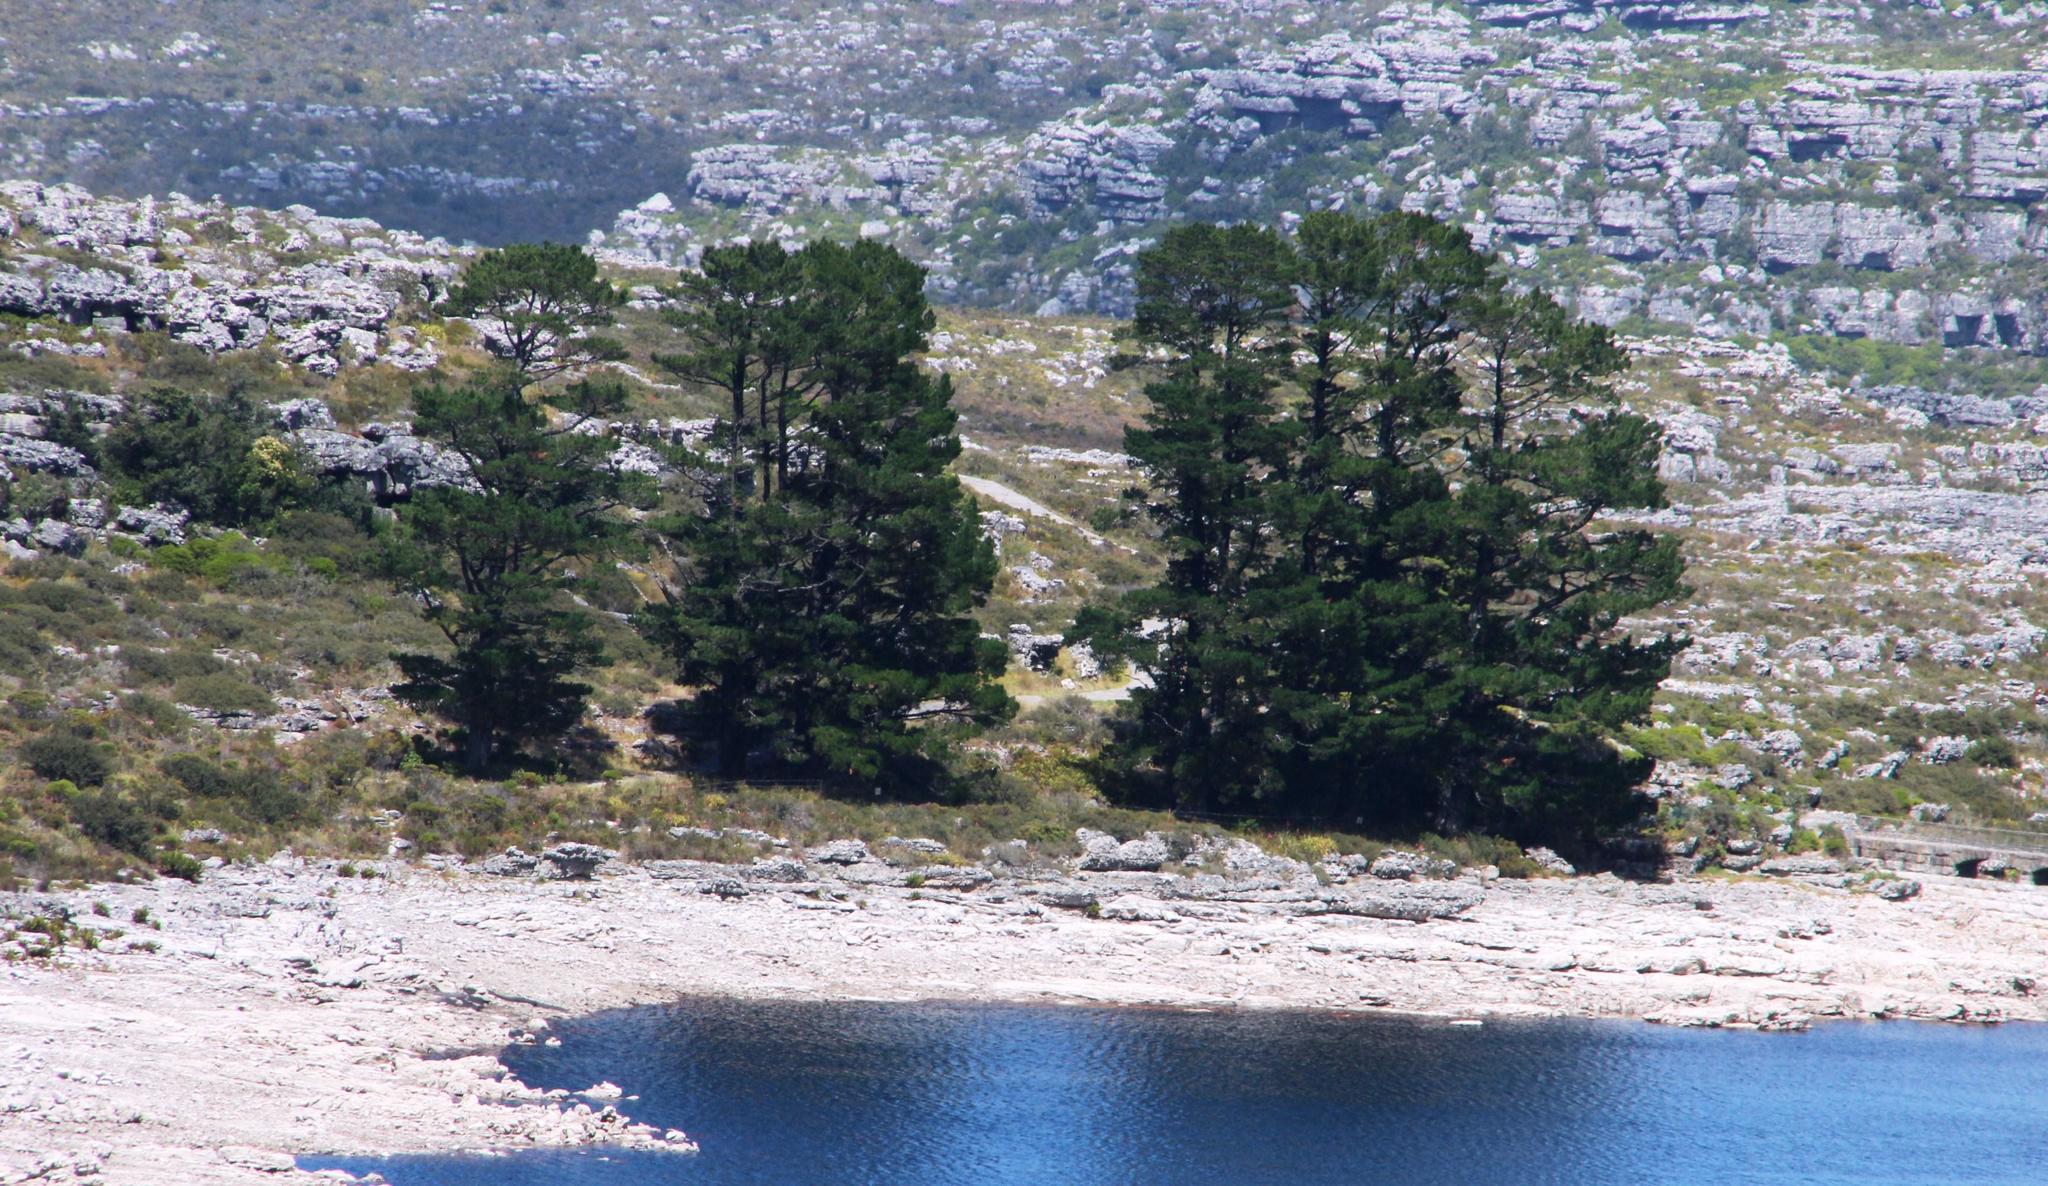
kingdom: Plantae
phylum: Tracheophyta
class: Pinopsida
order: Pinales
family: Pinaceae
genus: Pinus
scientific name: Pinus radiata
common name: Monterey pine
